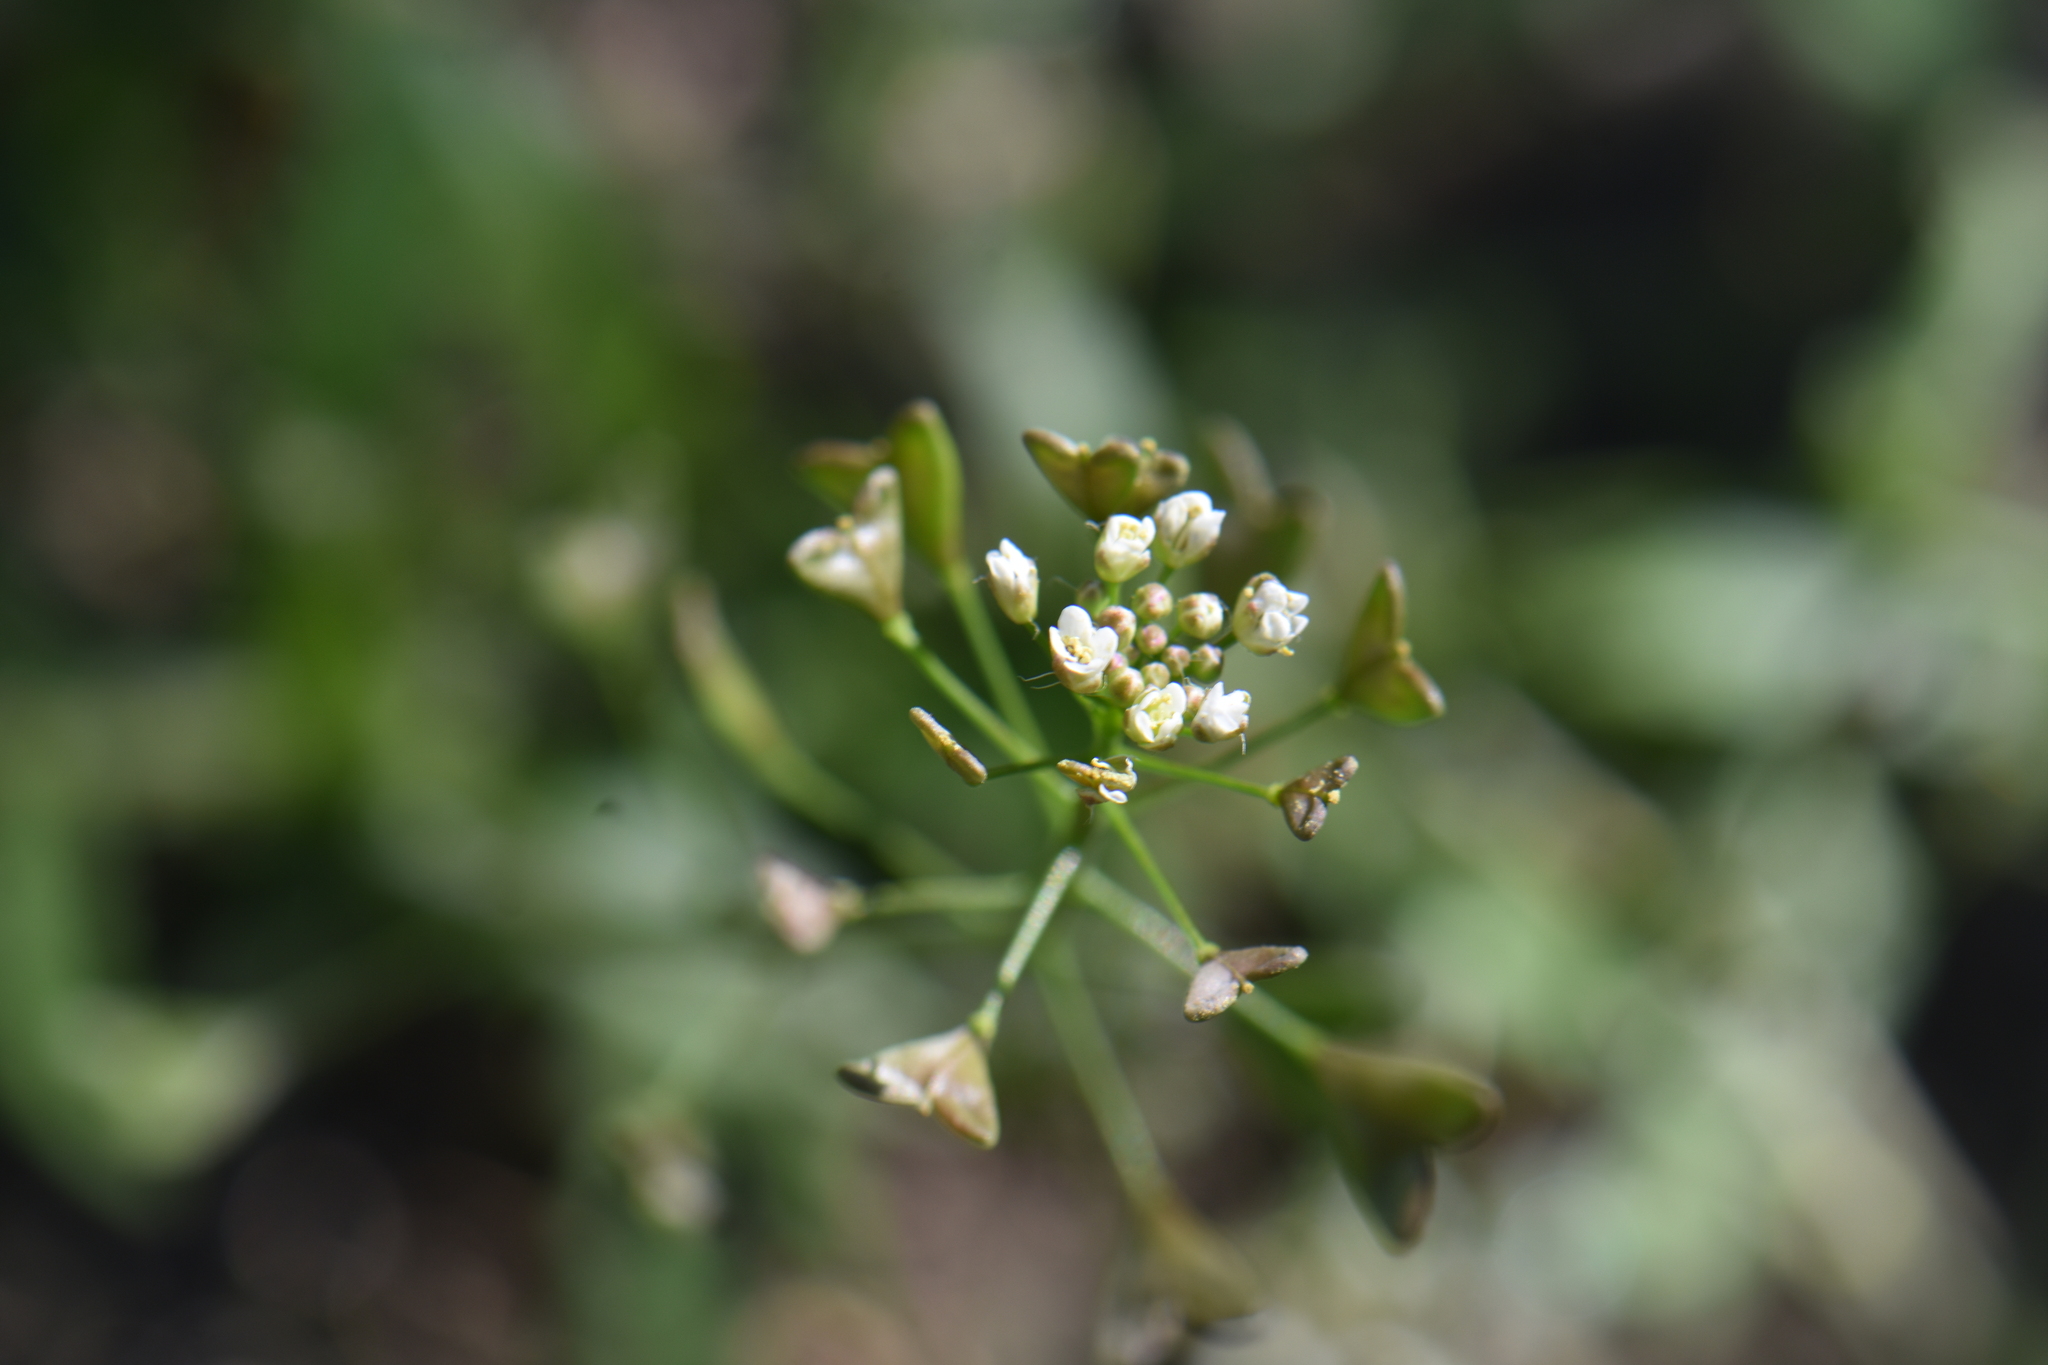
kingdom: Plantae
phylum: Tracheophyta
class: Magnoliopsida
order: Brassicales
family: Brassicaceae
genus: Capsella
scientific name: Capsella bursa-pastoris
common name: Shepherd's purse
